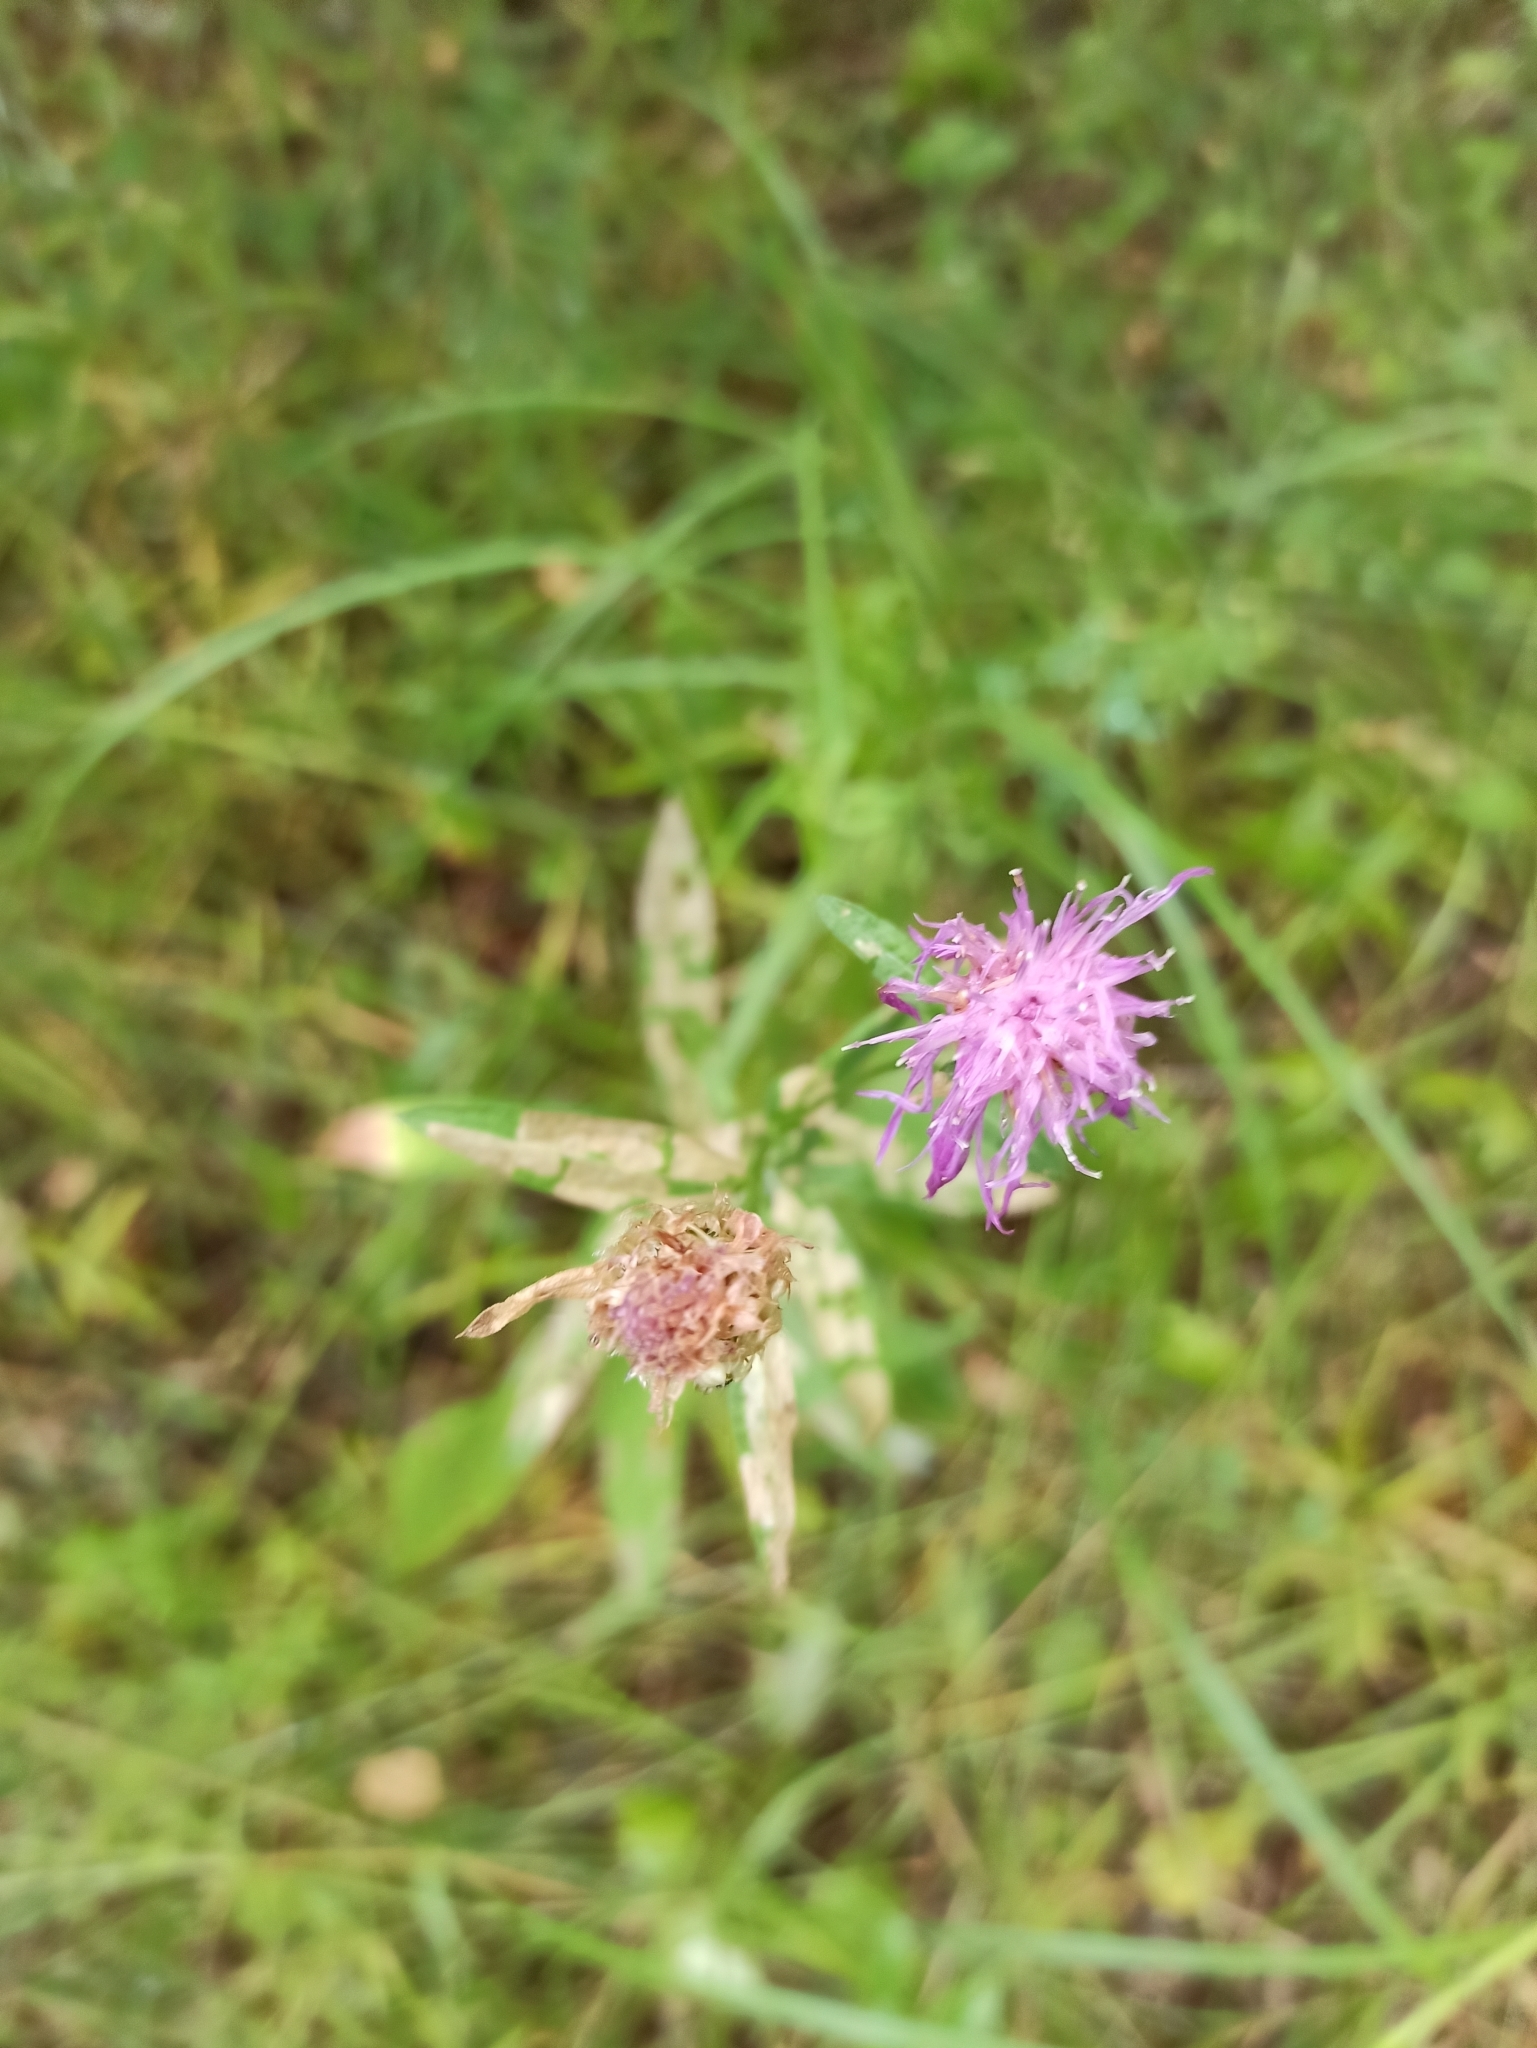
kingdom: Plantae
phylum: Tracheophyta
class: Magnoliopsida
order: Asterales
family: Asteraceae
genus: Centaurea
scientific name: Centaurea jacea
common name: Brown knapweed
